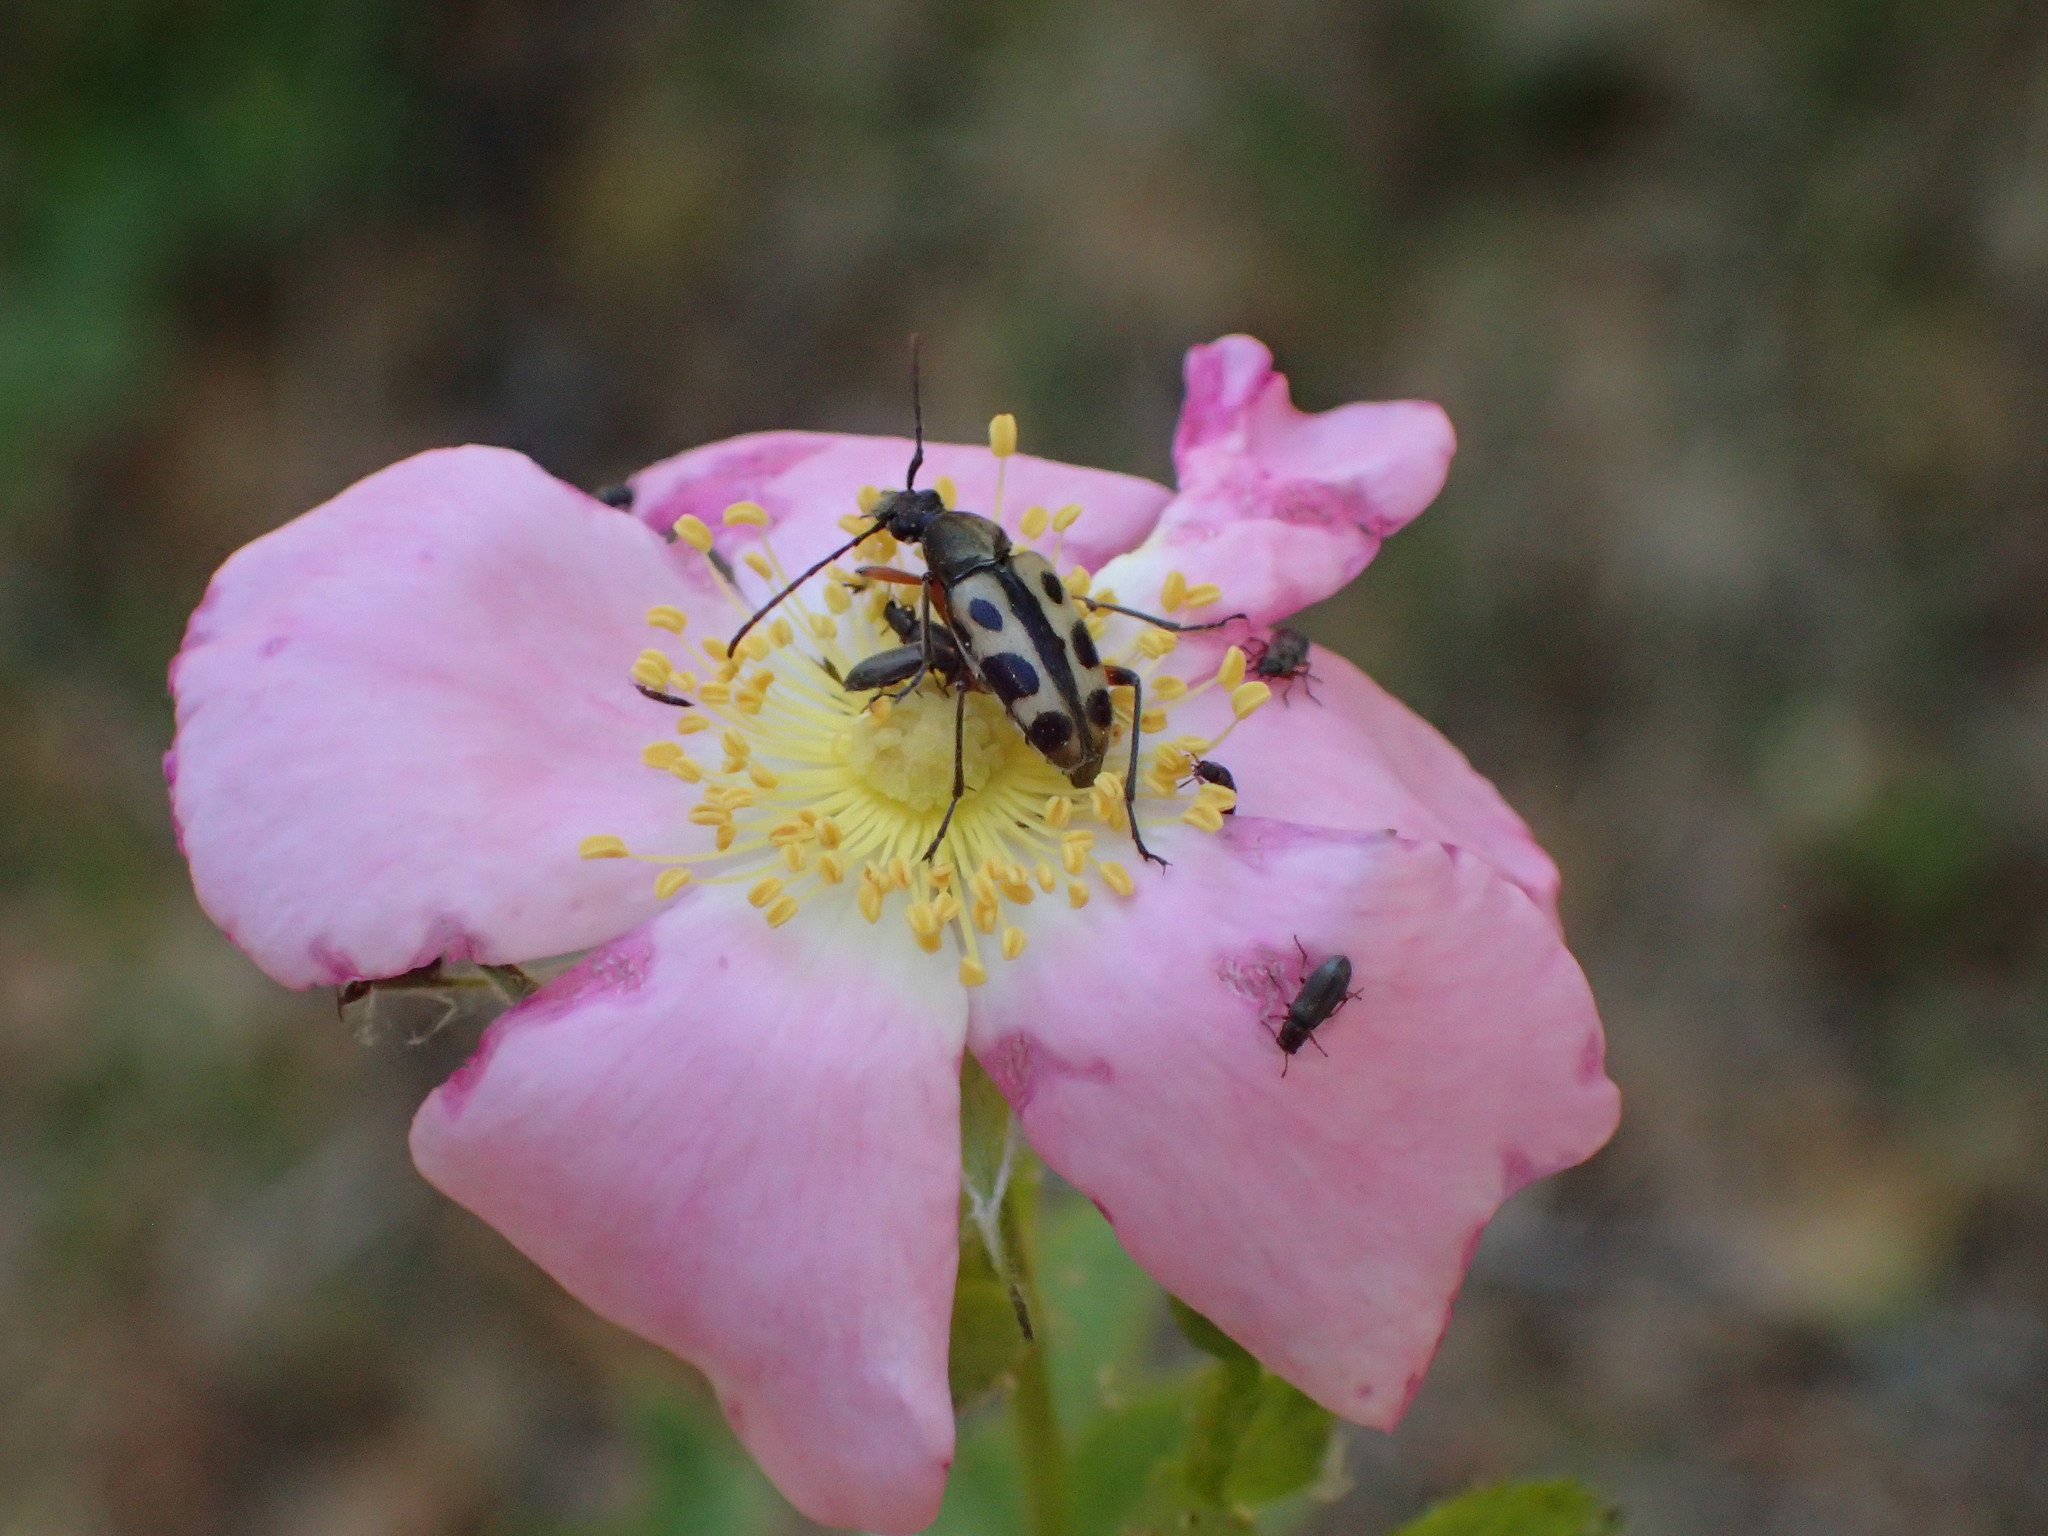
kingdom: Animalia
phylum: Arthropoda
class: Insecta
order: Coleoptera
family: Cerambycidae
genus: Judolia
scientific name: Judolia sexspilota
